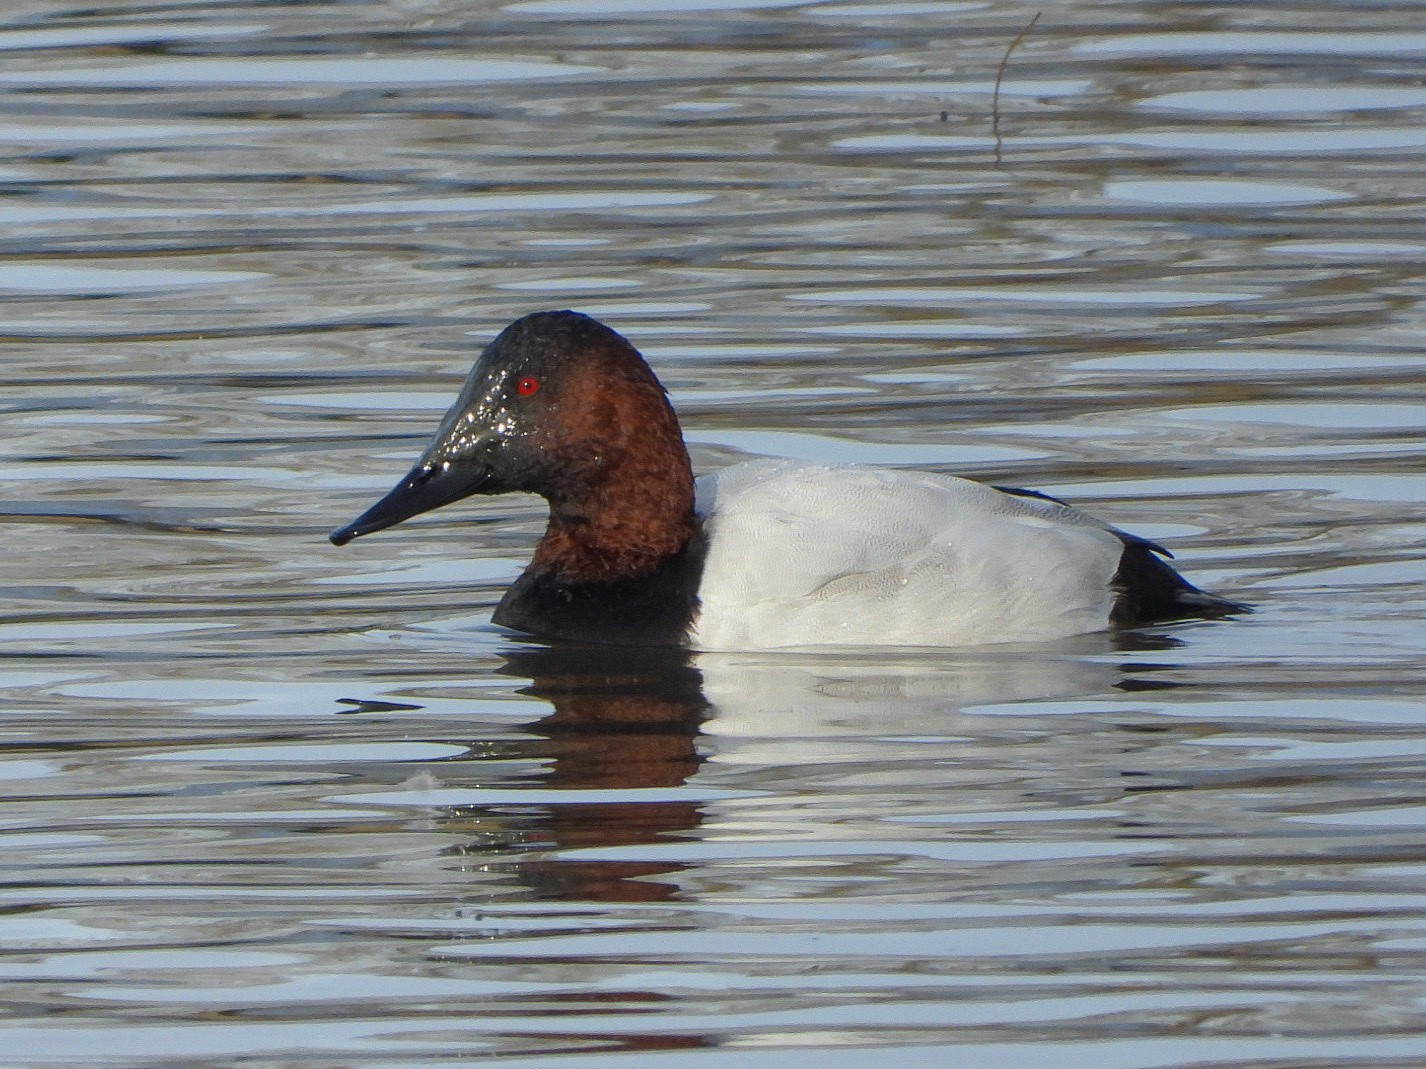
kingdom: Animalia
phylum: Chordata
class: Aves
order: Anseriformes
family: Anatidae
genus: Aythya
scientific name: Aythya valisineria
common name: Canvasback
